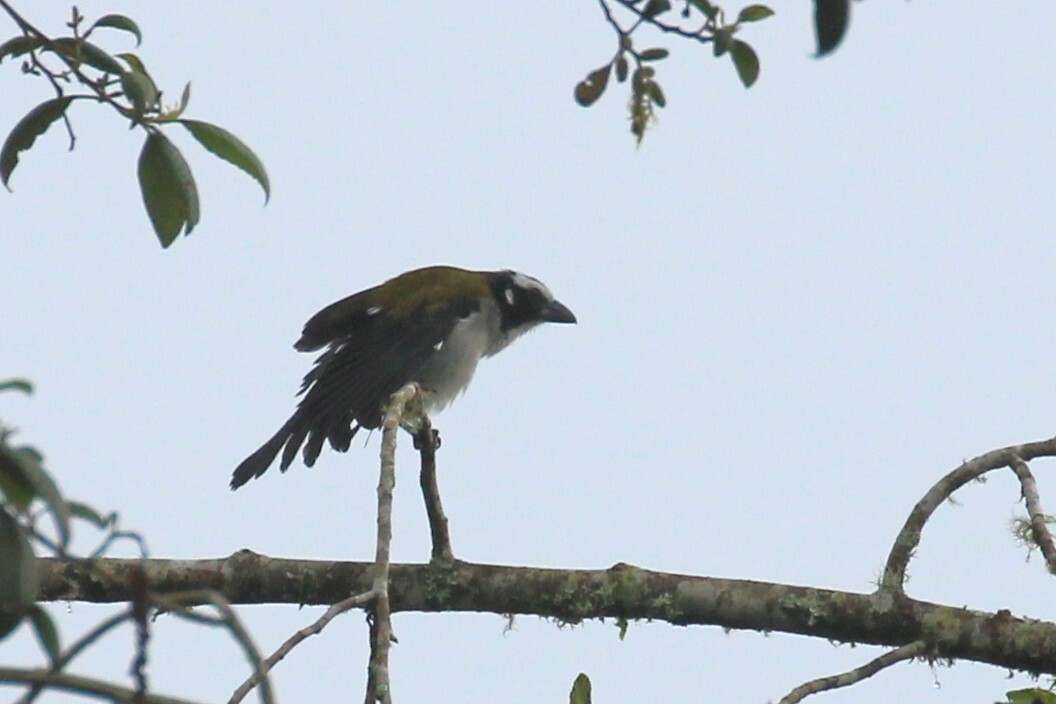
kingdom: Animalia
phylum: Chordata
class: Aves
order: Passeriformes
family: Thraupidae
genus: Saltator
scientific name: Saltator atripennis
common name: Black-winged saltator
